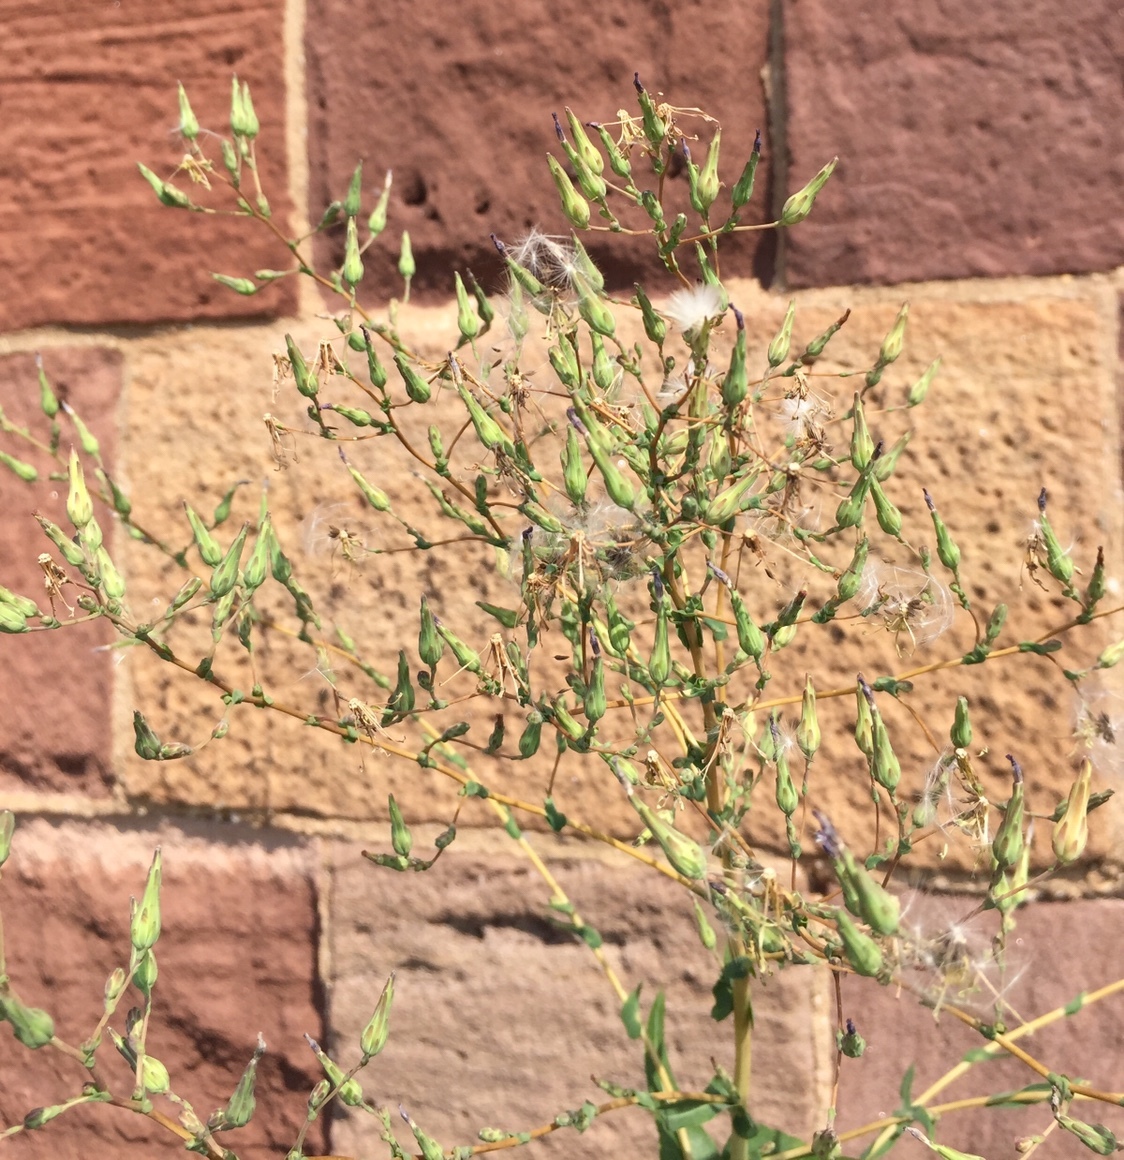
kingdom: Plantae
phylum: Tracheophyta
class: Magnoliopsida
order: Asterales
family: Asteraceae
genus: Lactuca
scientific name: Lactuca serriola
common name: Prickly lettuce
